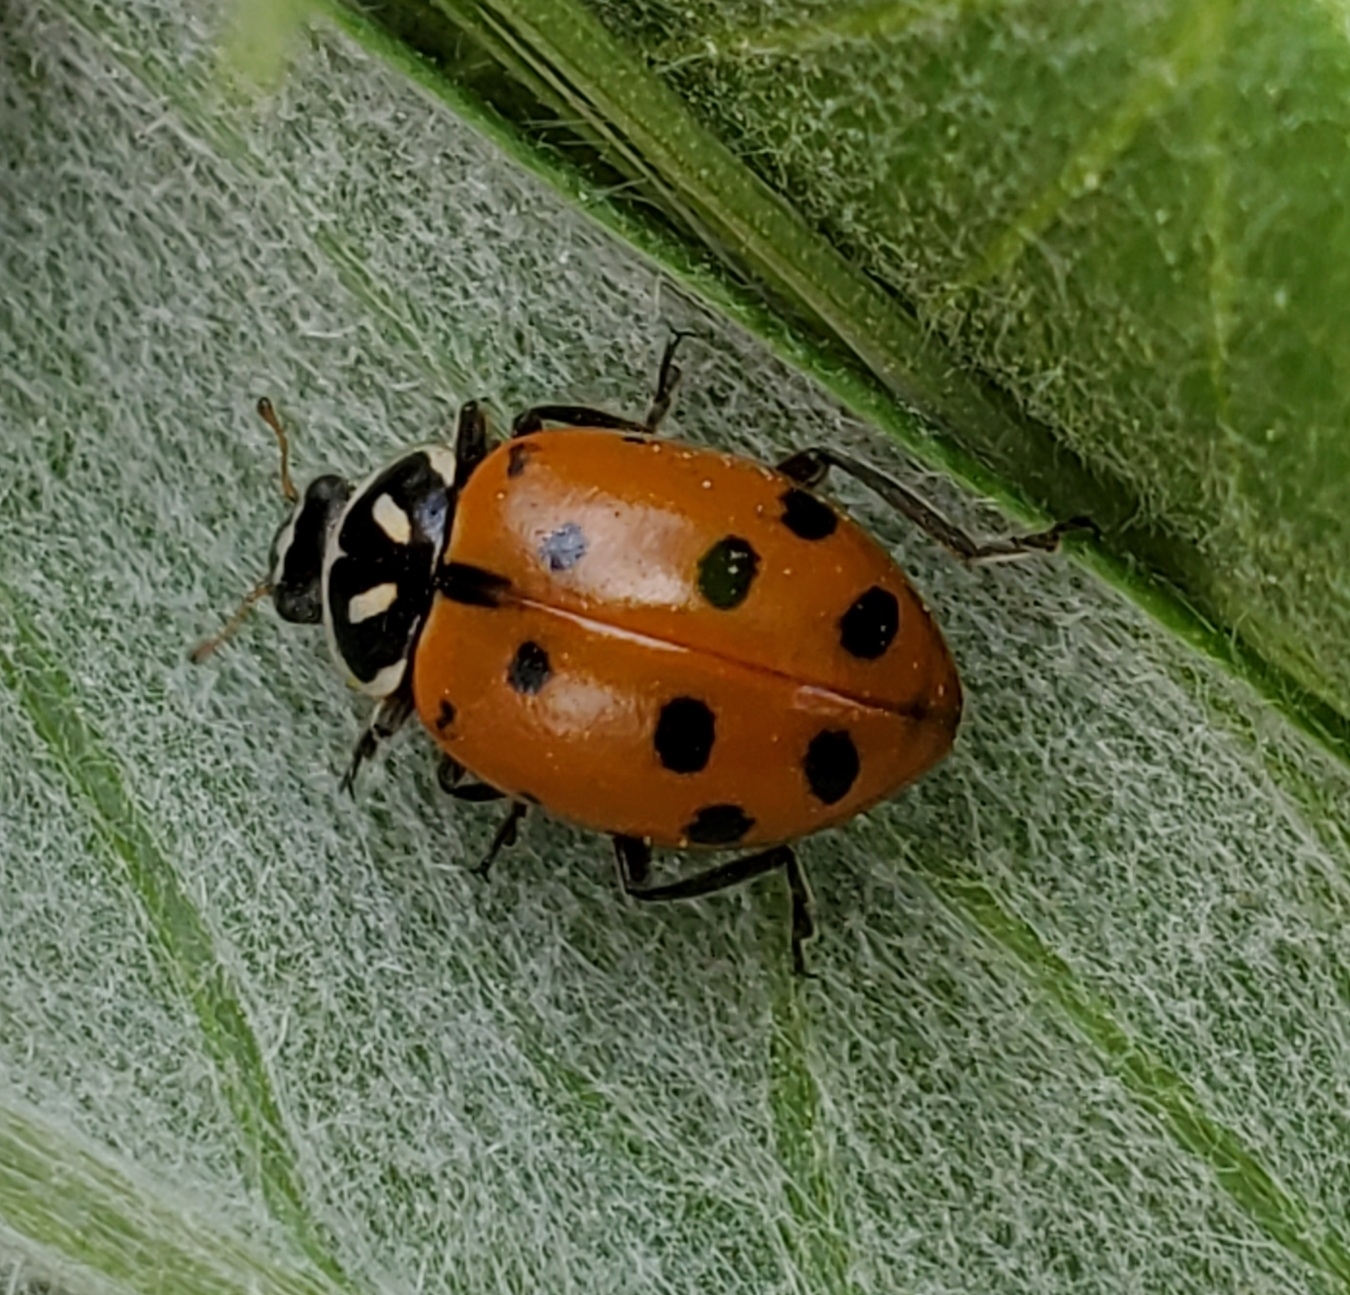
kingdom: Animalia
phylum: Arthropoda
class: Insecta
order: Coleoptera
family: Coccinellidae
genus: Hippodamia
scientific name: Hippodamia convergens
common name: Convergent lady beetle
